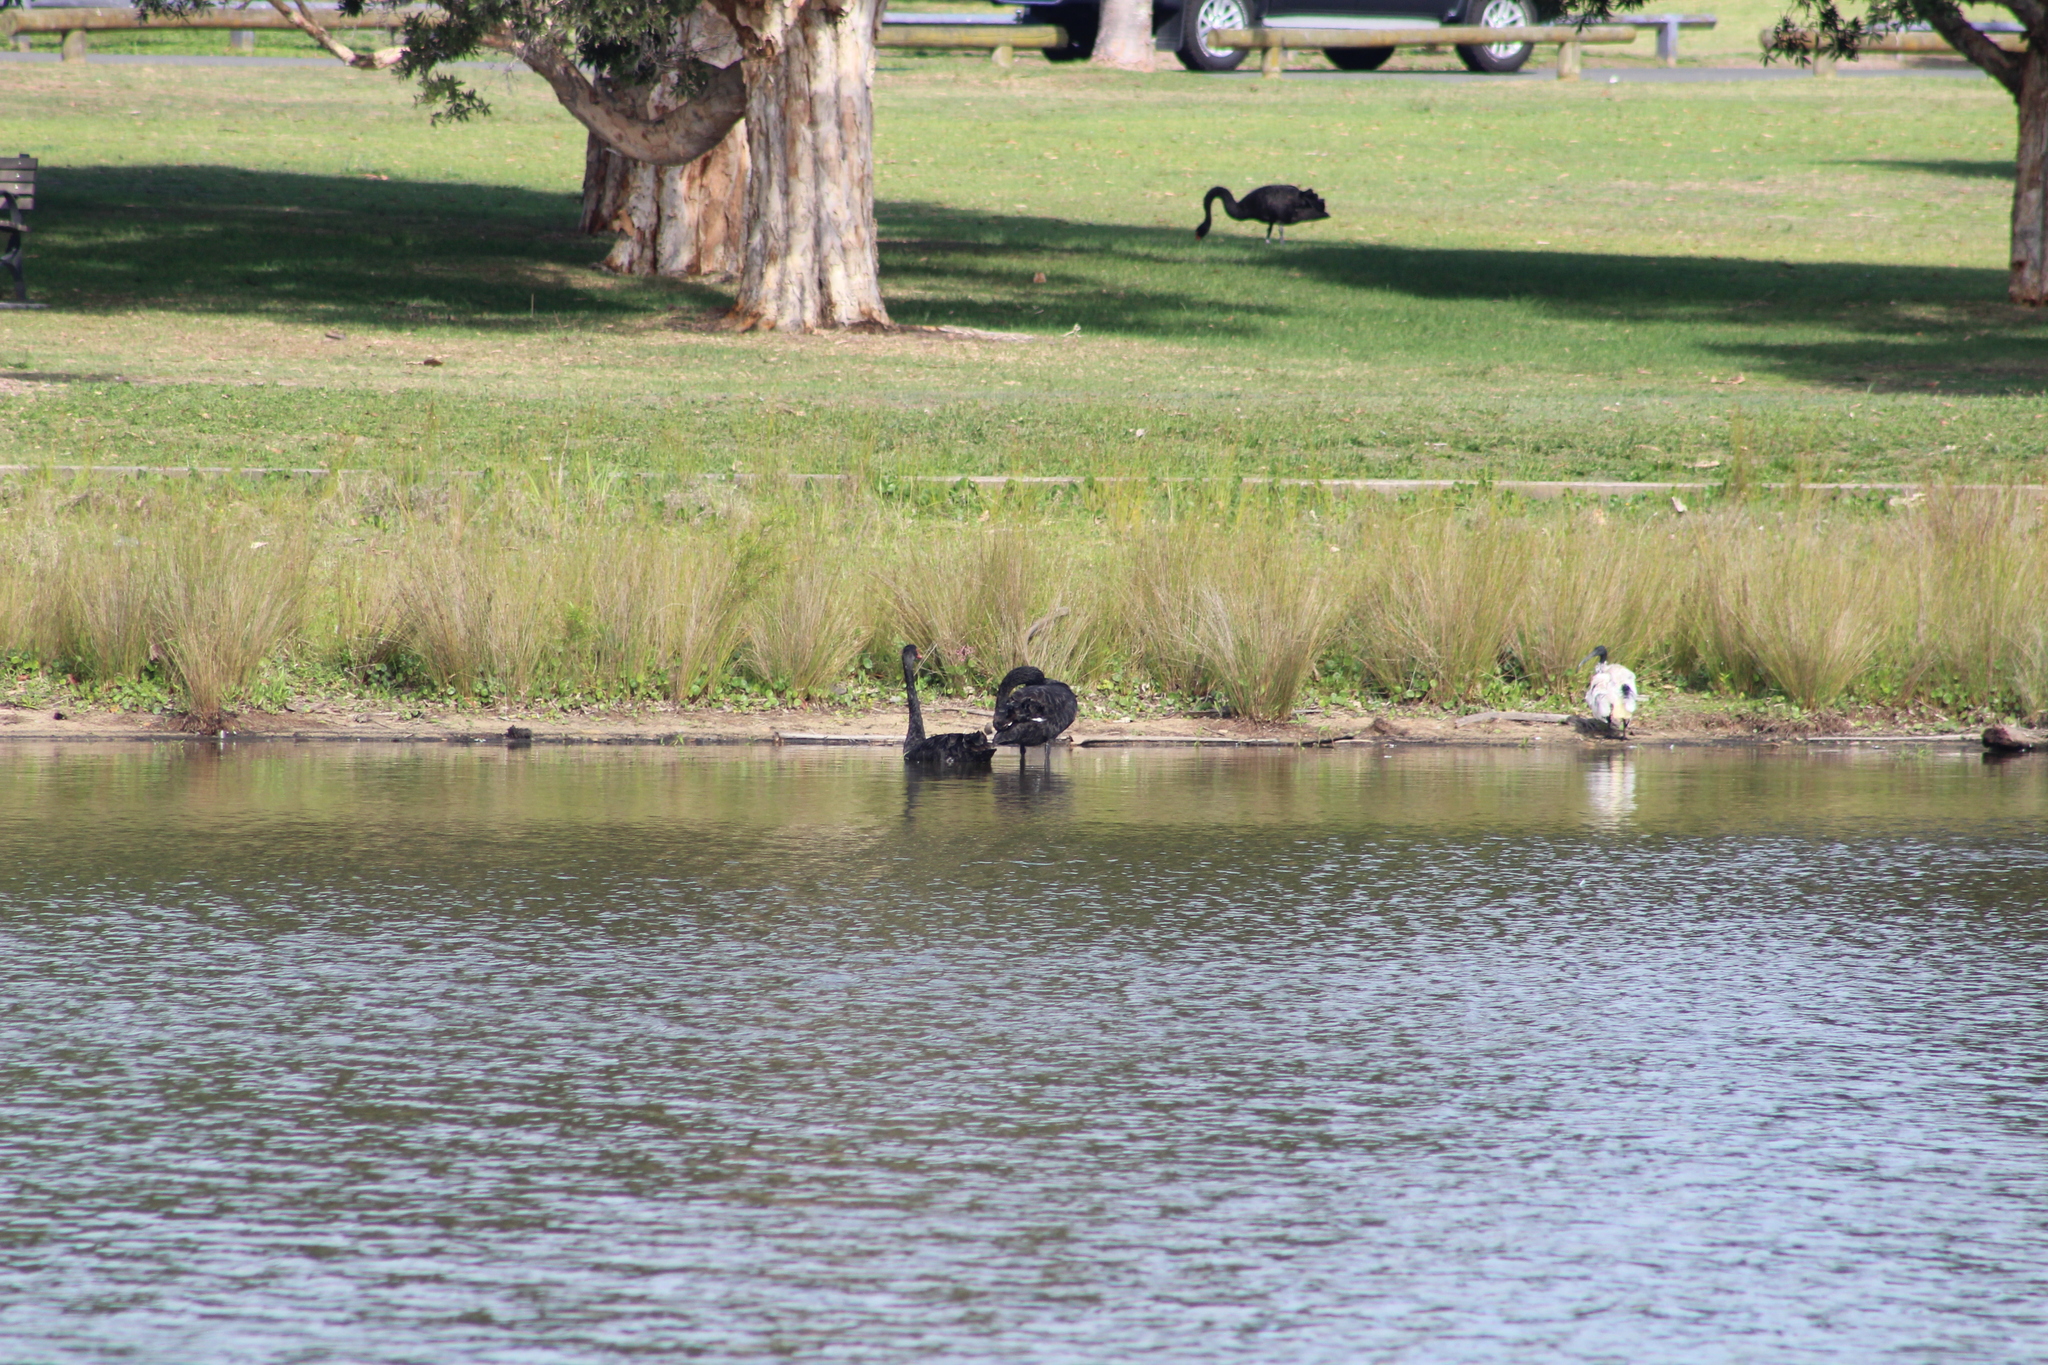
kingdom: Animalia
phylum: Chordata
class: Aves
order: Anseriformes
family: Anatidae
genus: Cygnus
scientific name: Cygnus atratus
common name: Black swan
